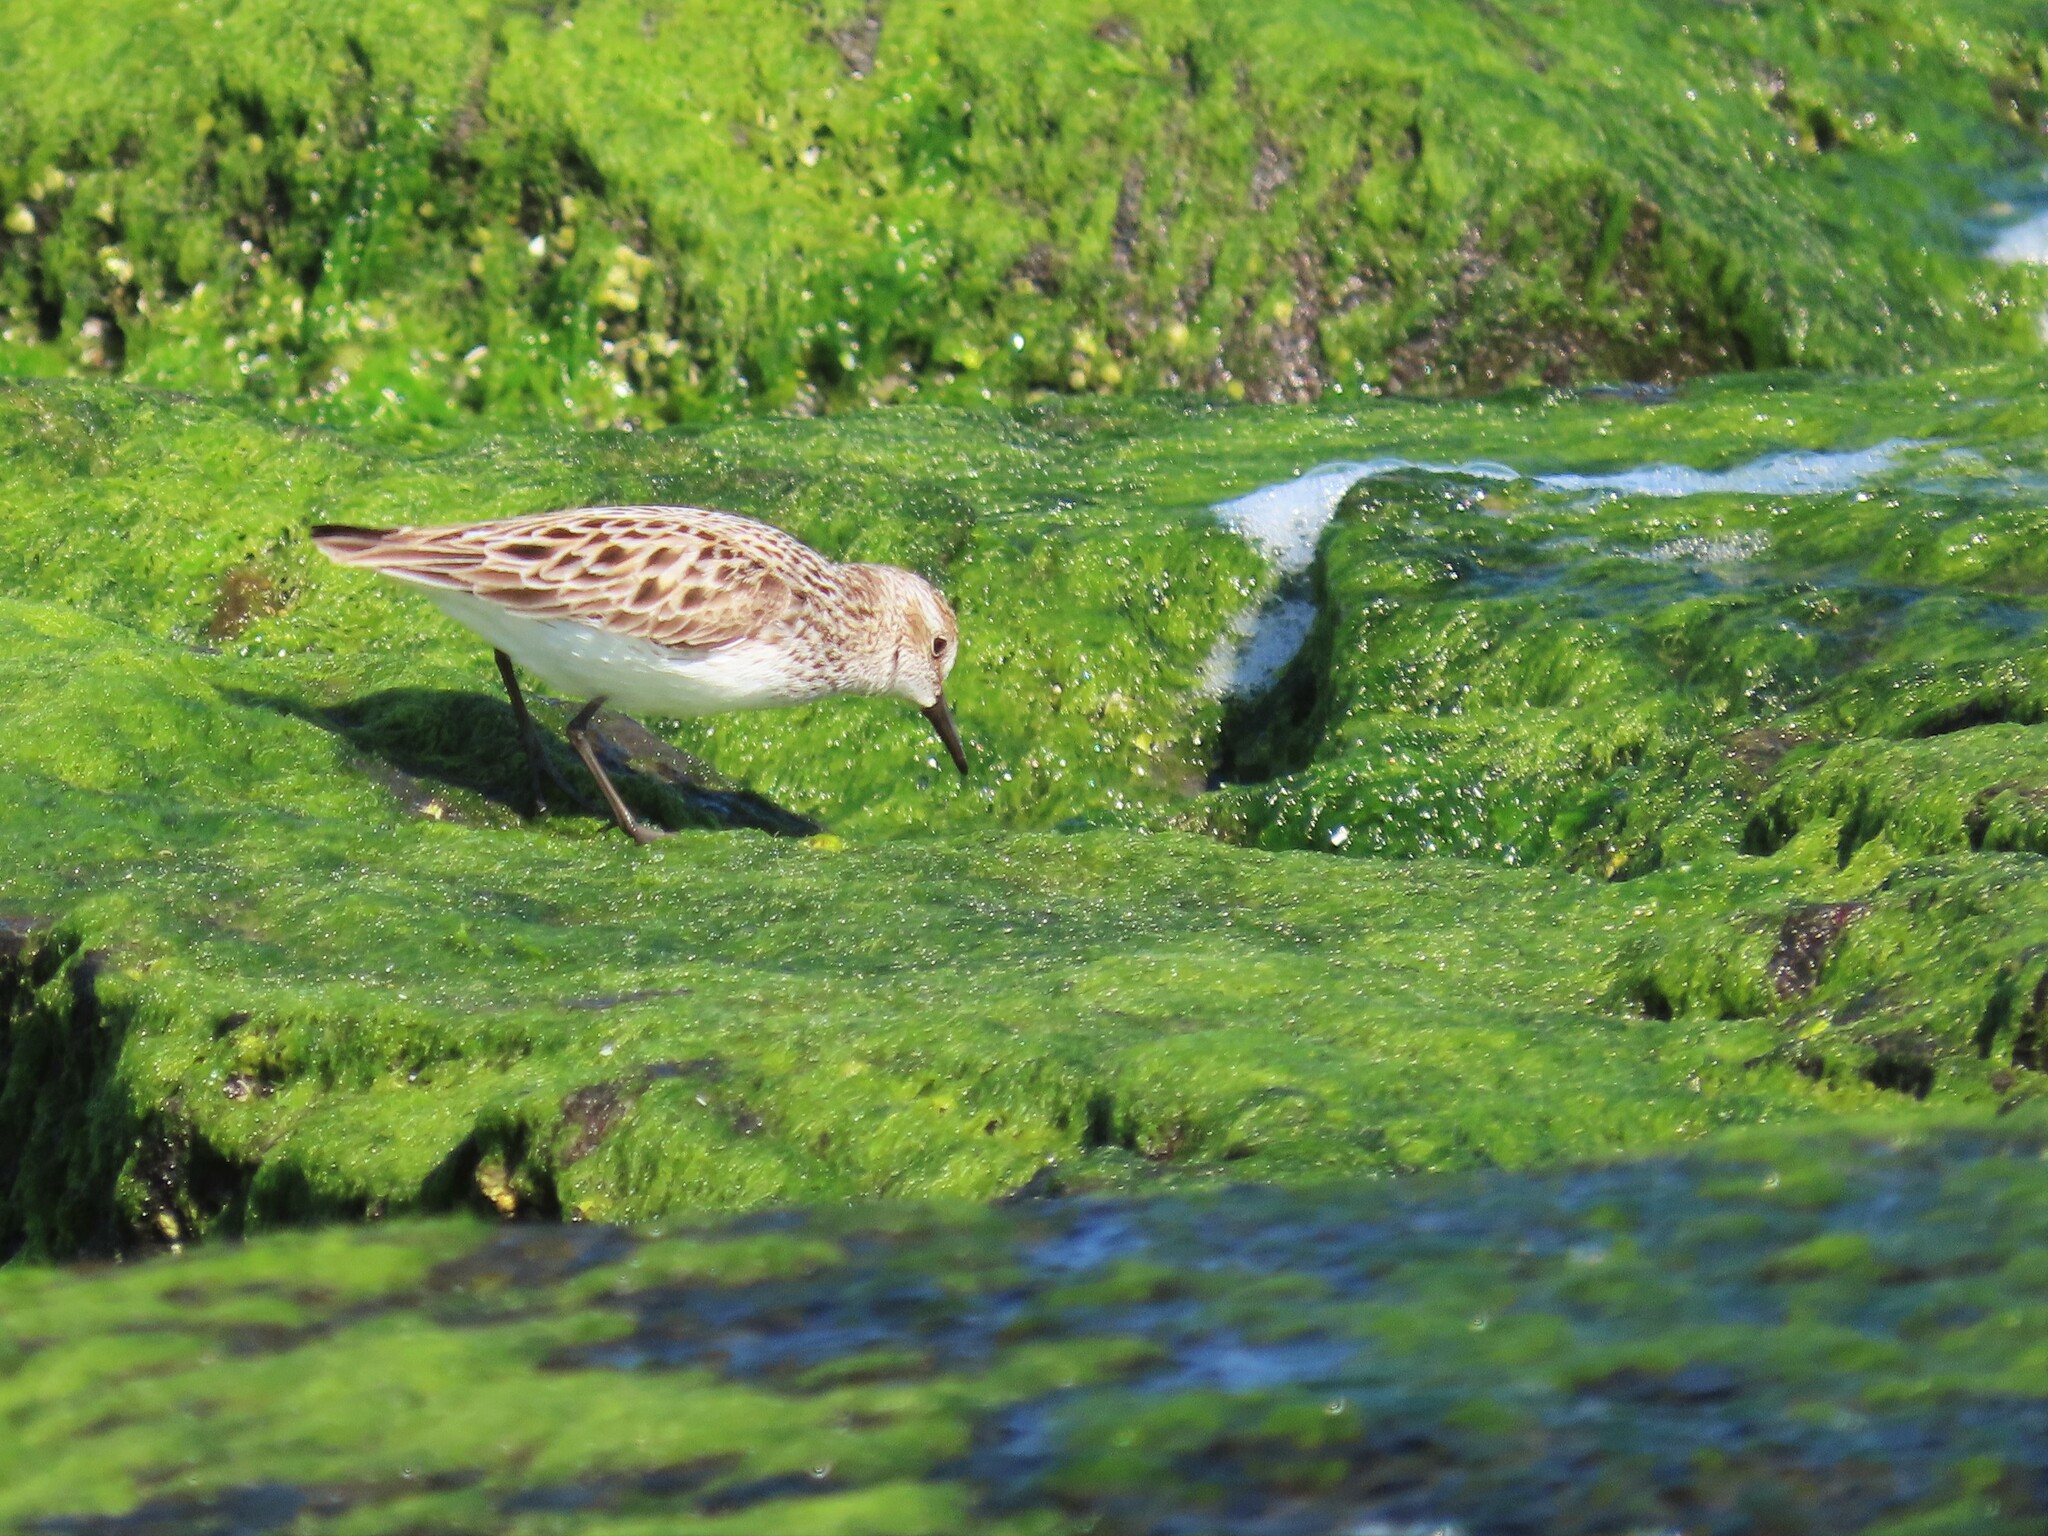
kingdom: Animalia
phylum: Chordata
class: Aves
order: Charadriiformes
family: Scolopacidae
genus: Calidris
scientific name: Calidris pusilla
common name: Semipalmated sandpiper
